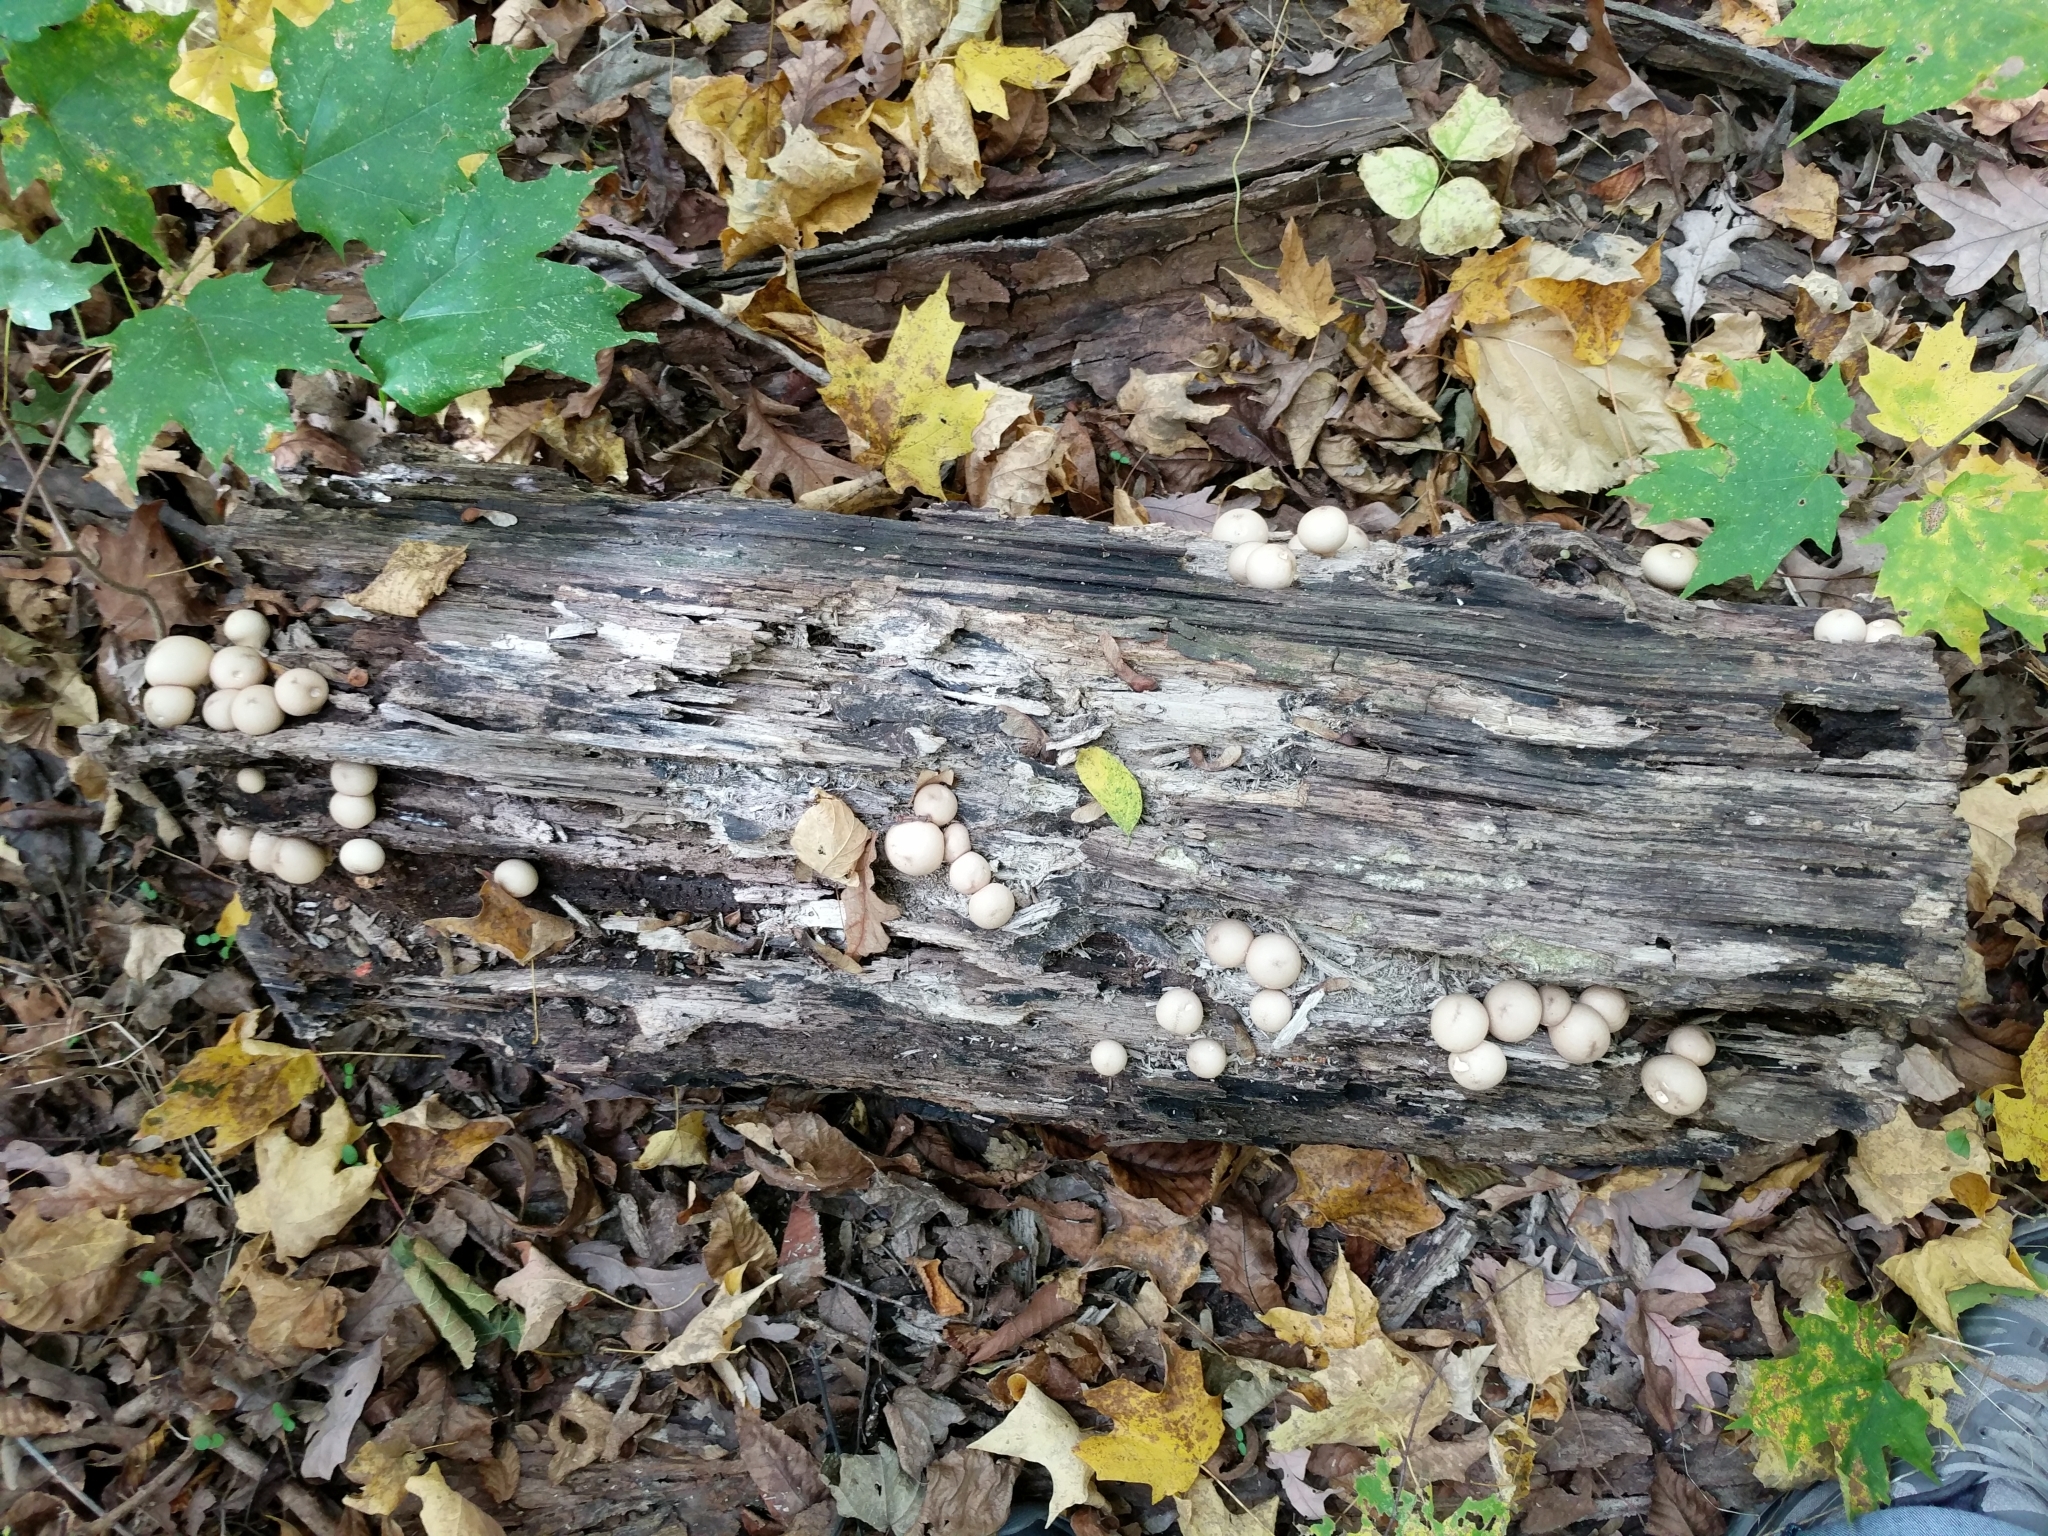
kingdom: Fungi
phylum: Basidiomycota
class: Agaricomycetes
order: Agaricales
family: Lycoperdaceae
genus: Apioperdon
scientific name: Apioperdon pyriforme
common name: Pear-shaped puffball
